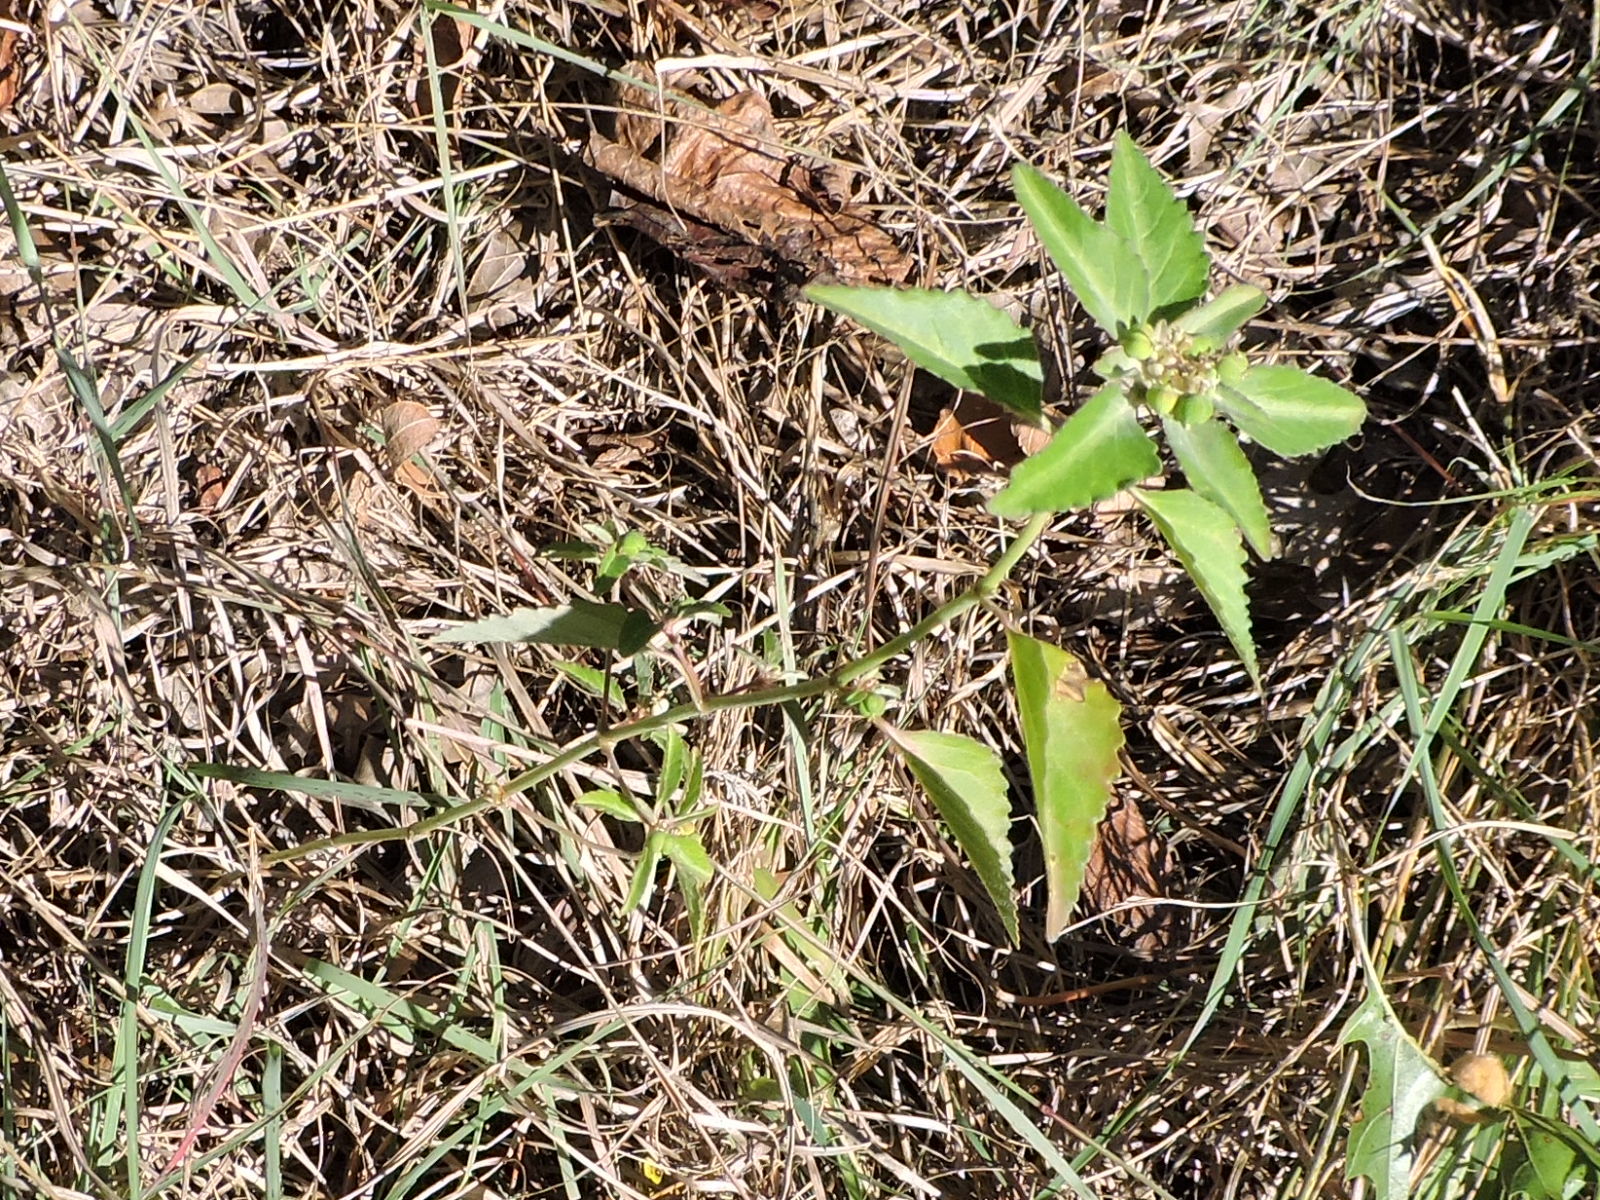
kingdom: Plantae
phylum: Tracheophyta
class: Magnoliopsida
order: Malpighiales
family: Euphorbiaceae
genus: Euphorbia
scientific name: Euphorbia dentata
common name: Dentate spurge
